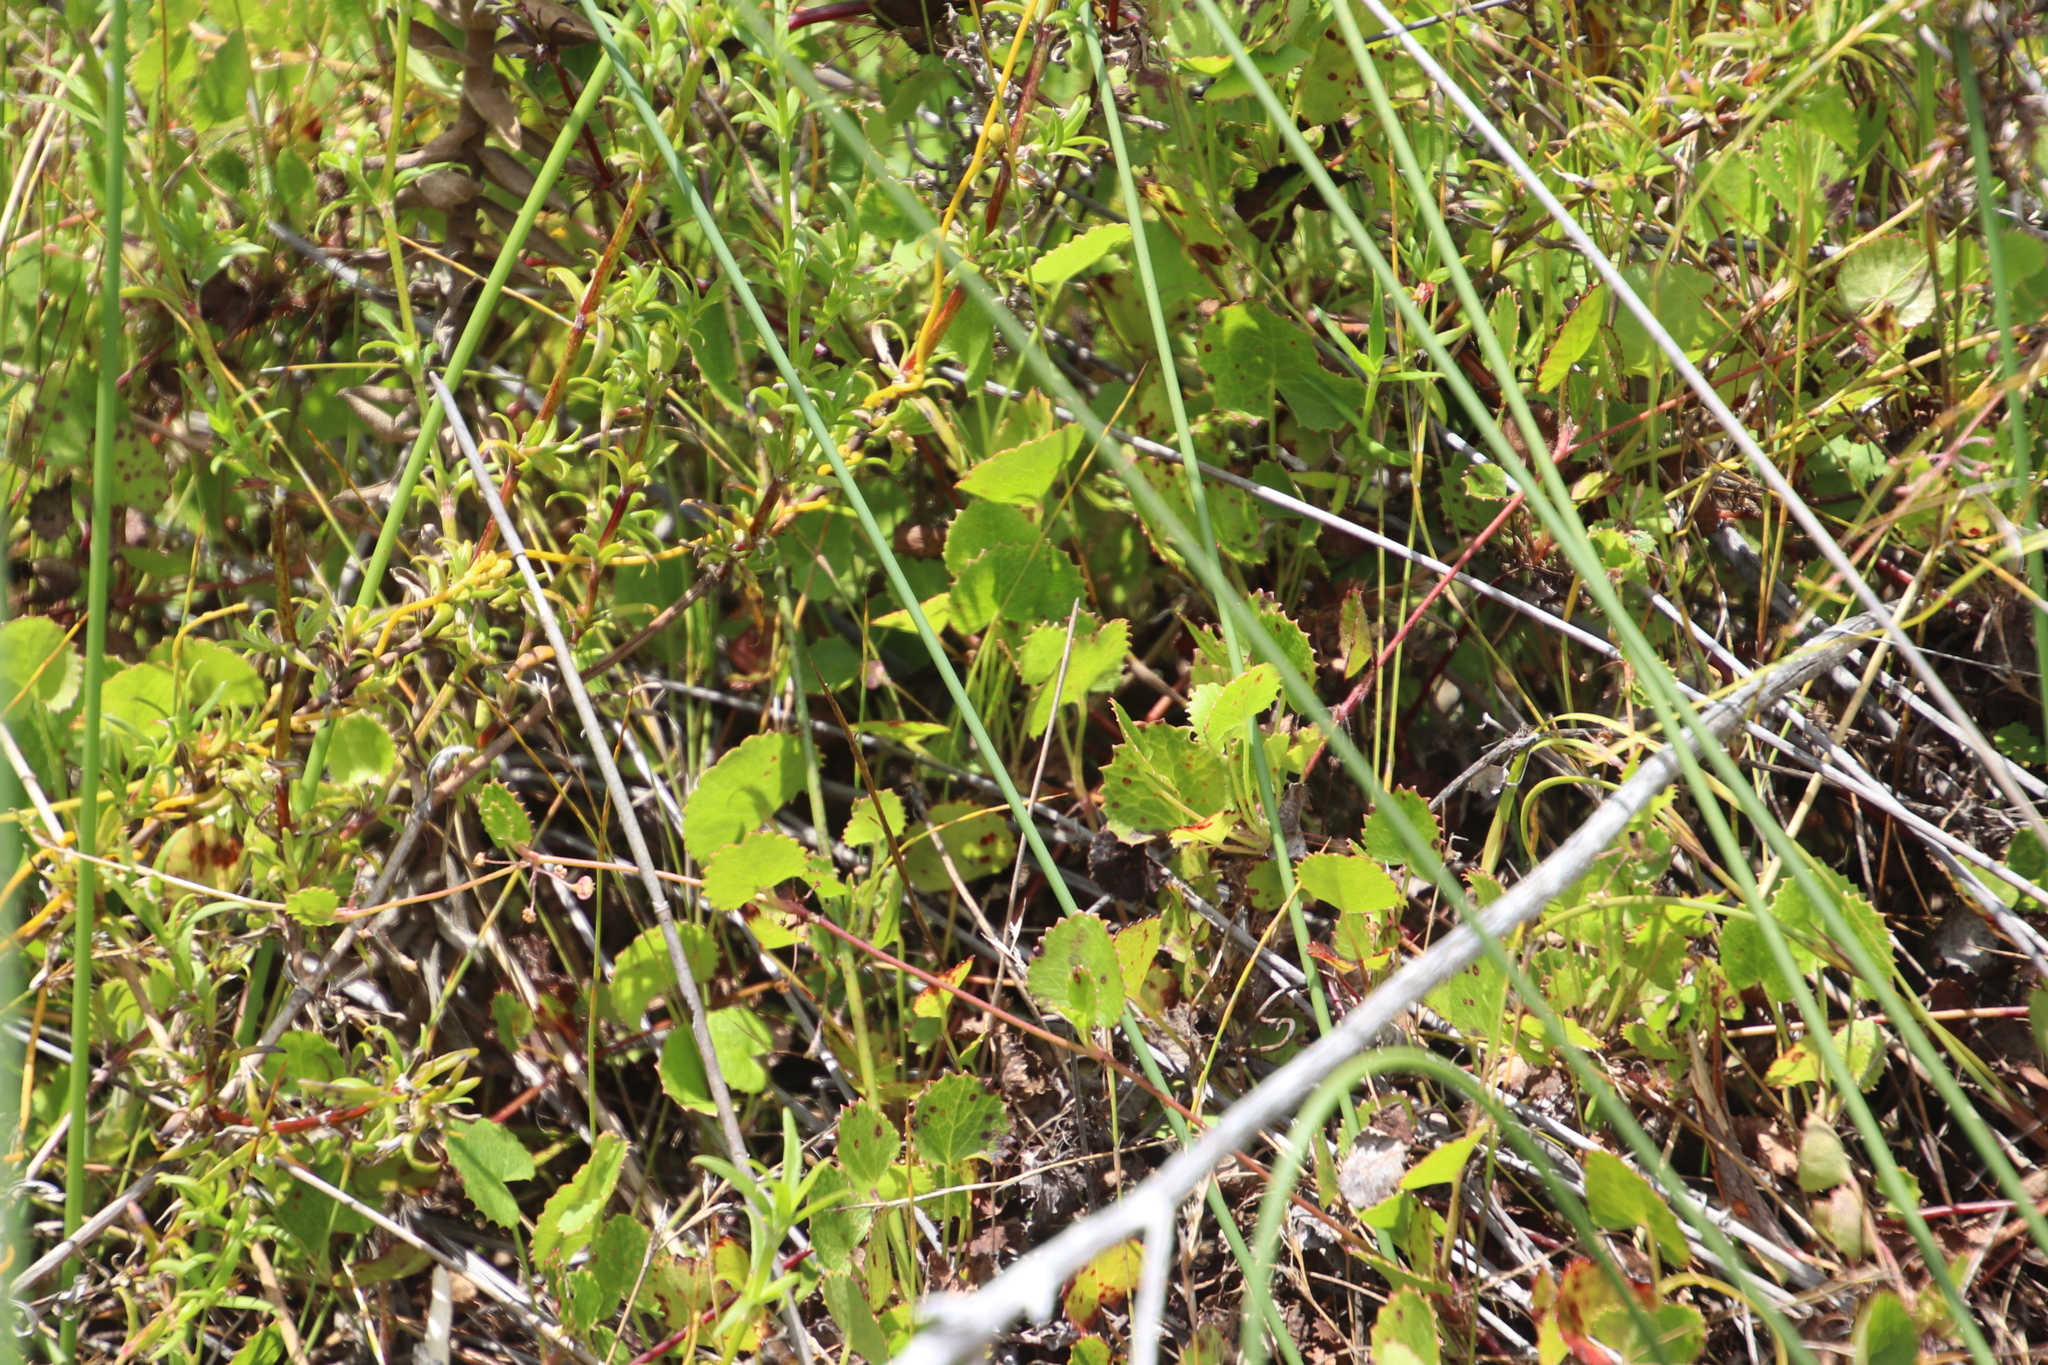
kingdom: Plantae
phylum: Tracheophyta
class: Magnoliopsida
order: Apiales
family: Apiaceae
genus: Centella
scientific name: Centella eriantha
